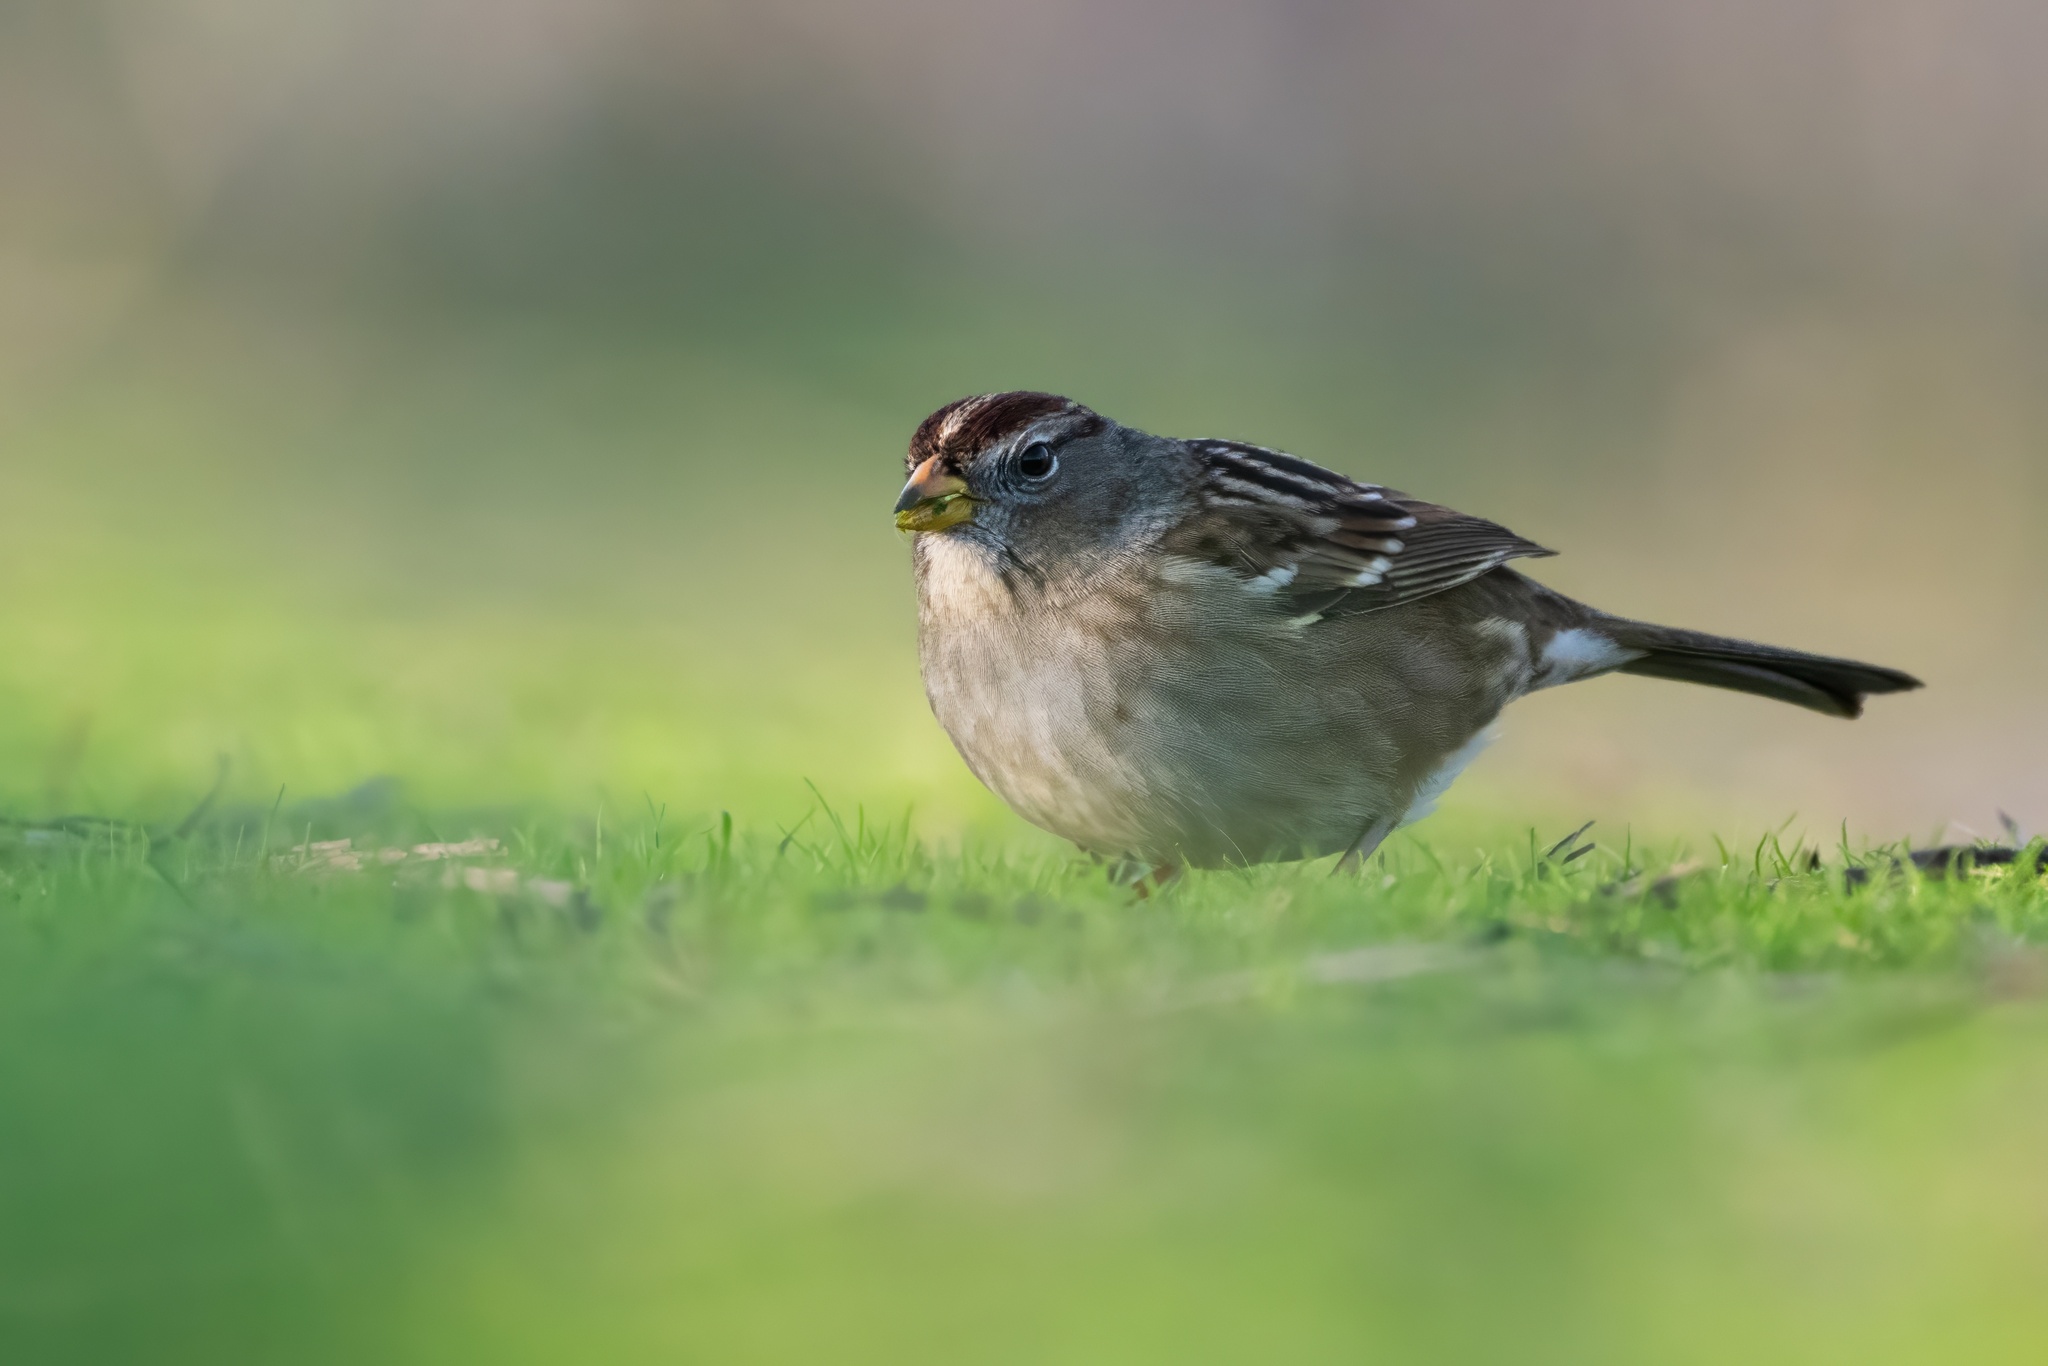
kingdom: Animalia
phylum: Chordata
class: Aves
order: Passeriformes
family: Passerellidae
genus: Zonotrichia
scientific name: Zonotrichia leucophrys
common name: White-crowned sparrow
